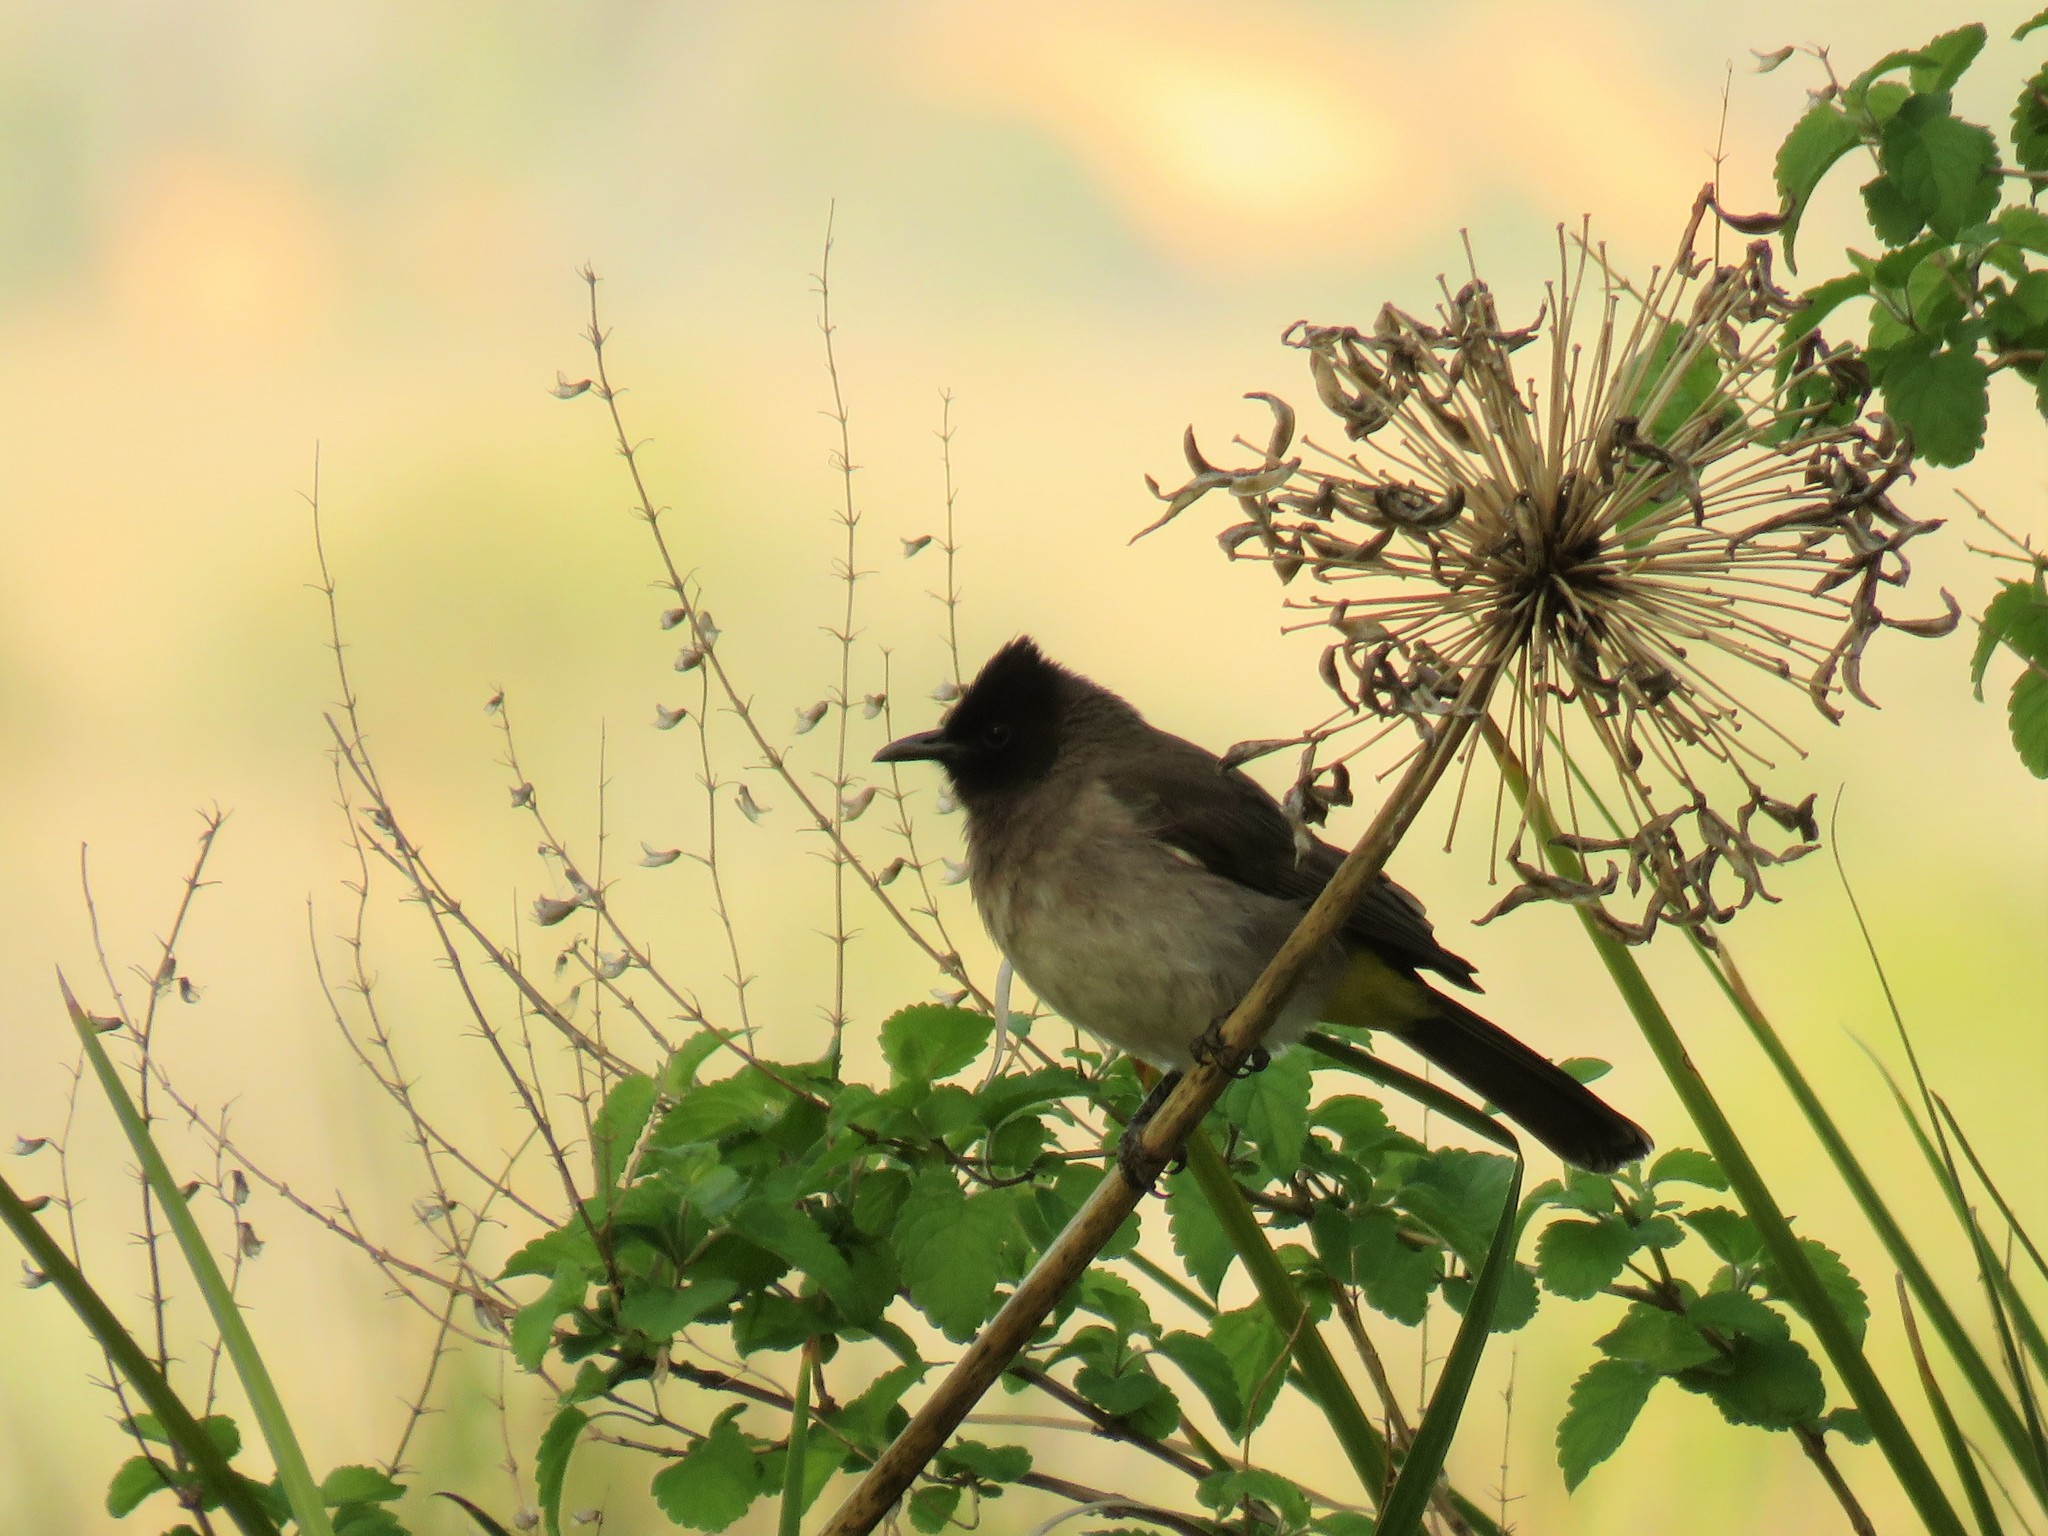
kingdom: Animalia
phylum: Chordata
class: Aves
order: Passeriformes
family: Pycnonotidae
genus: Pycnonotus
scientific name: Pycnonotus barbatus
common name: Common bulbul
